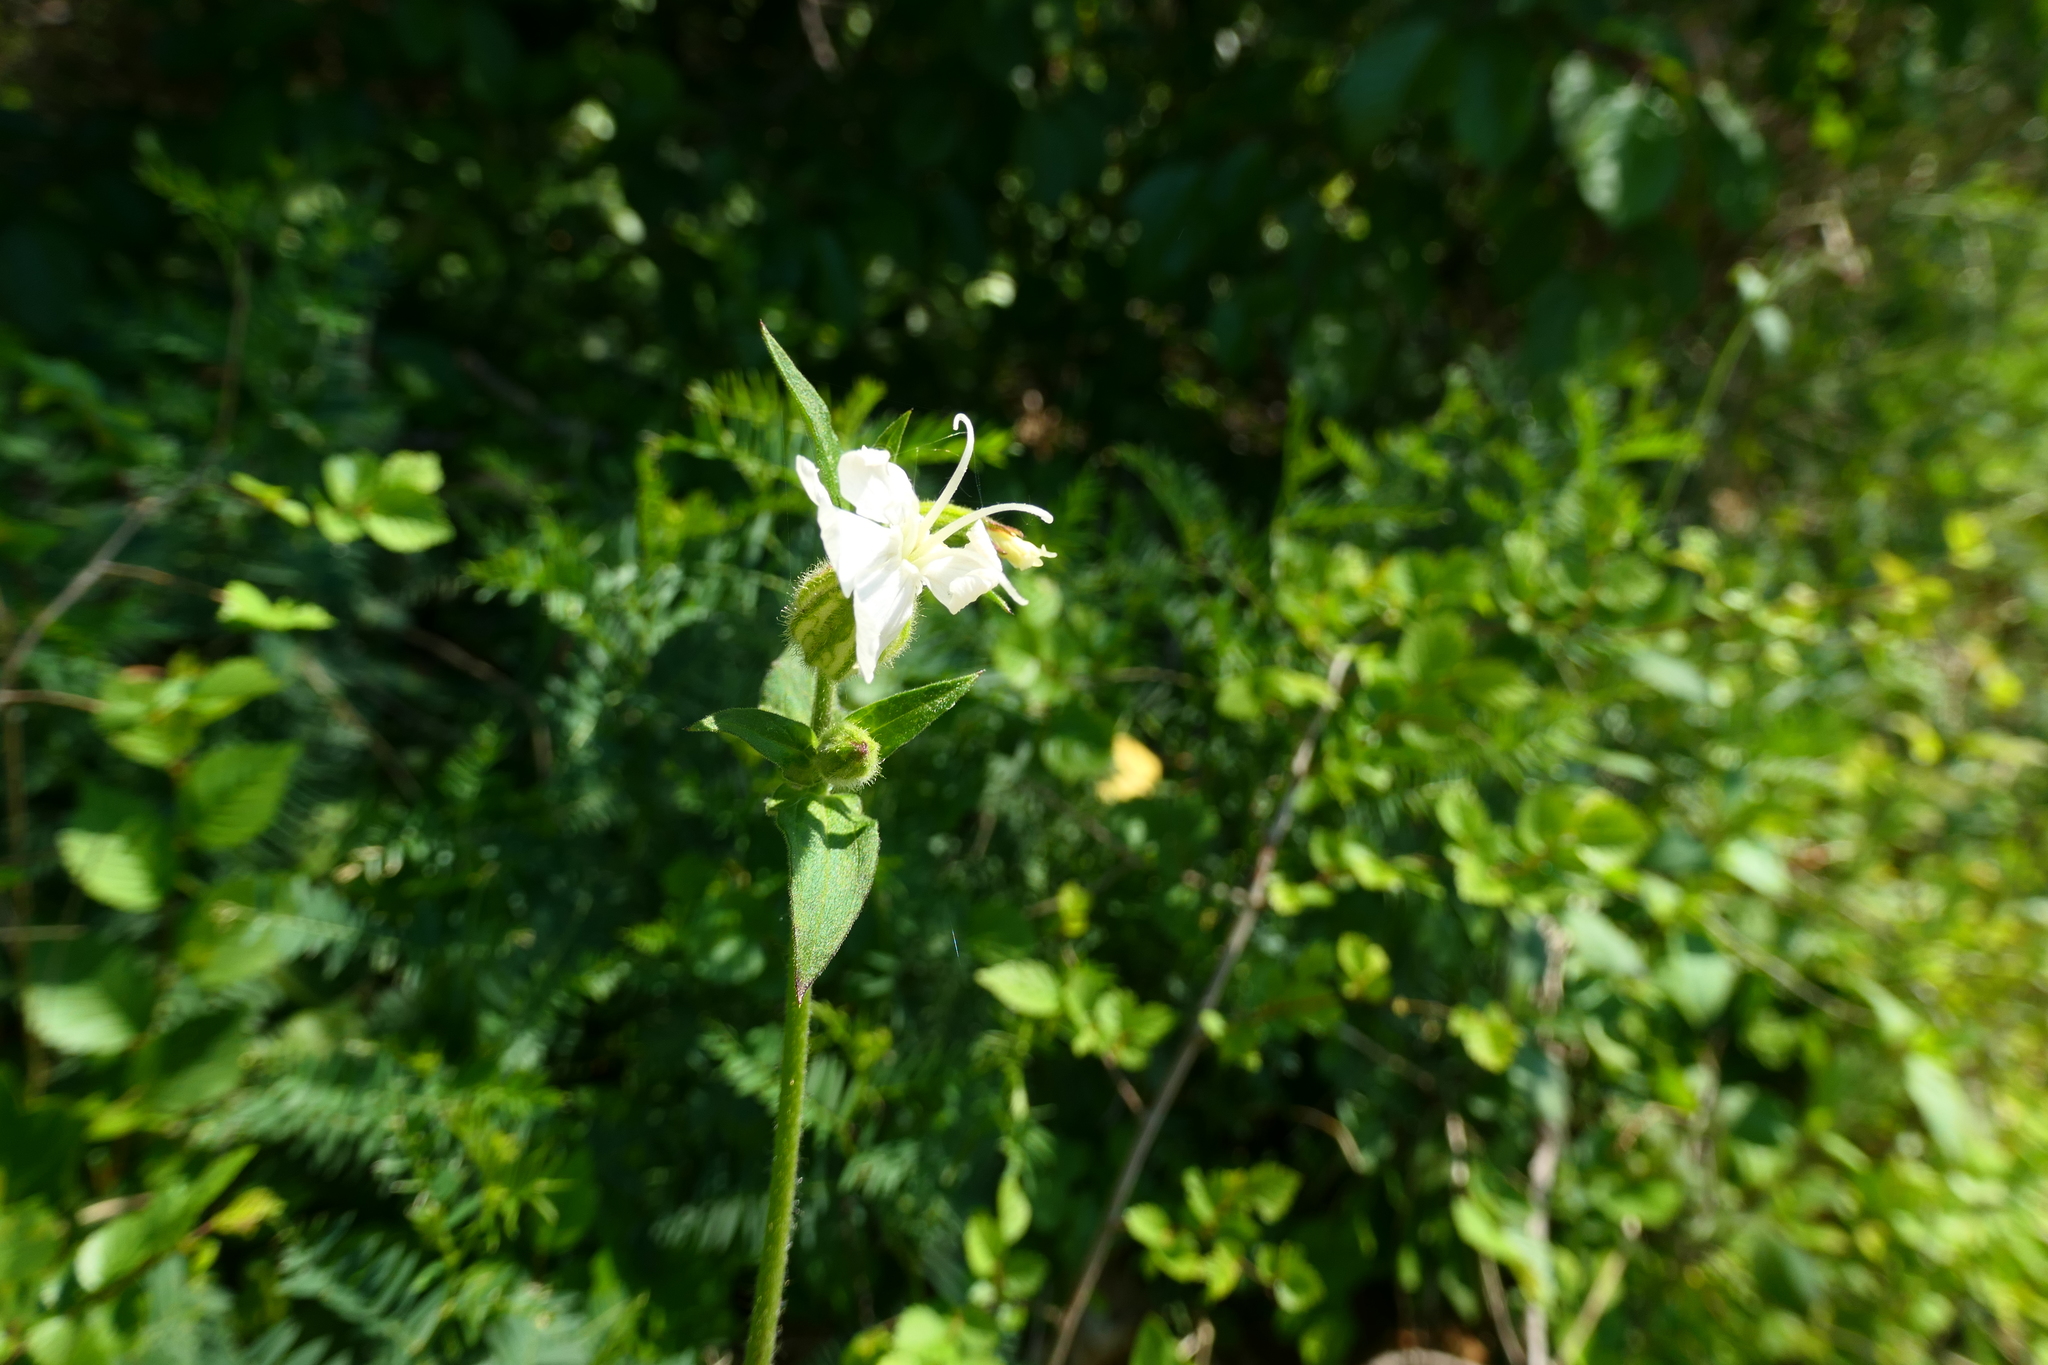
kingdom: Plantae
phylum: Tracheophyta
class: Magnoliopsida
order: Caryophyllales
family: Caryophyllaceae
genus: Silene
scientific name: Silene latifolia
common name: White campion
